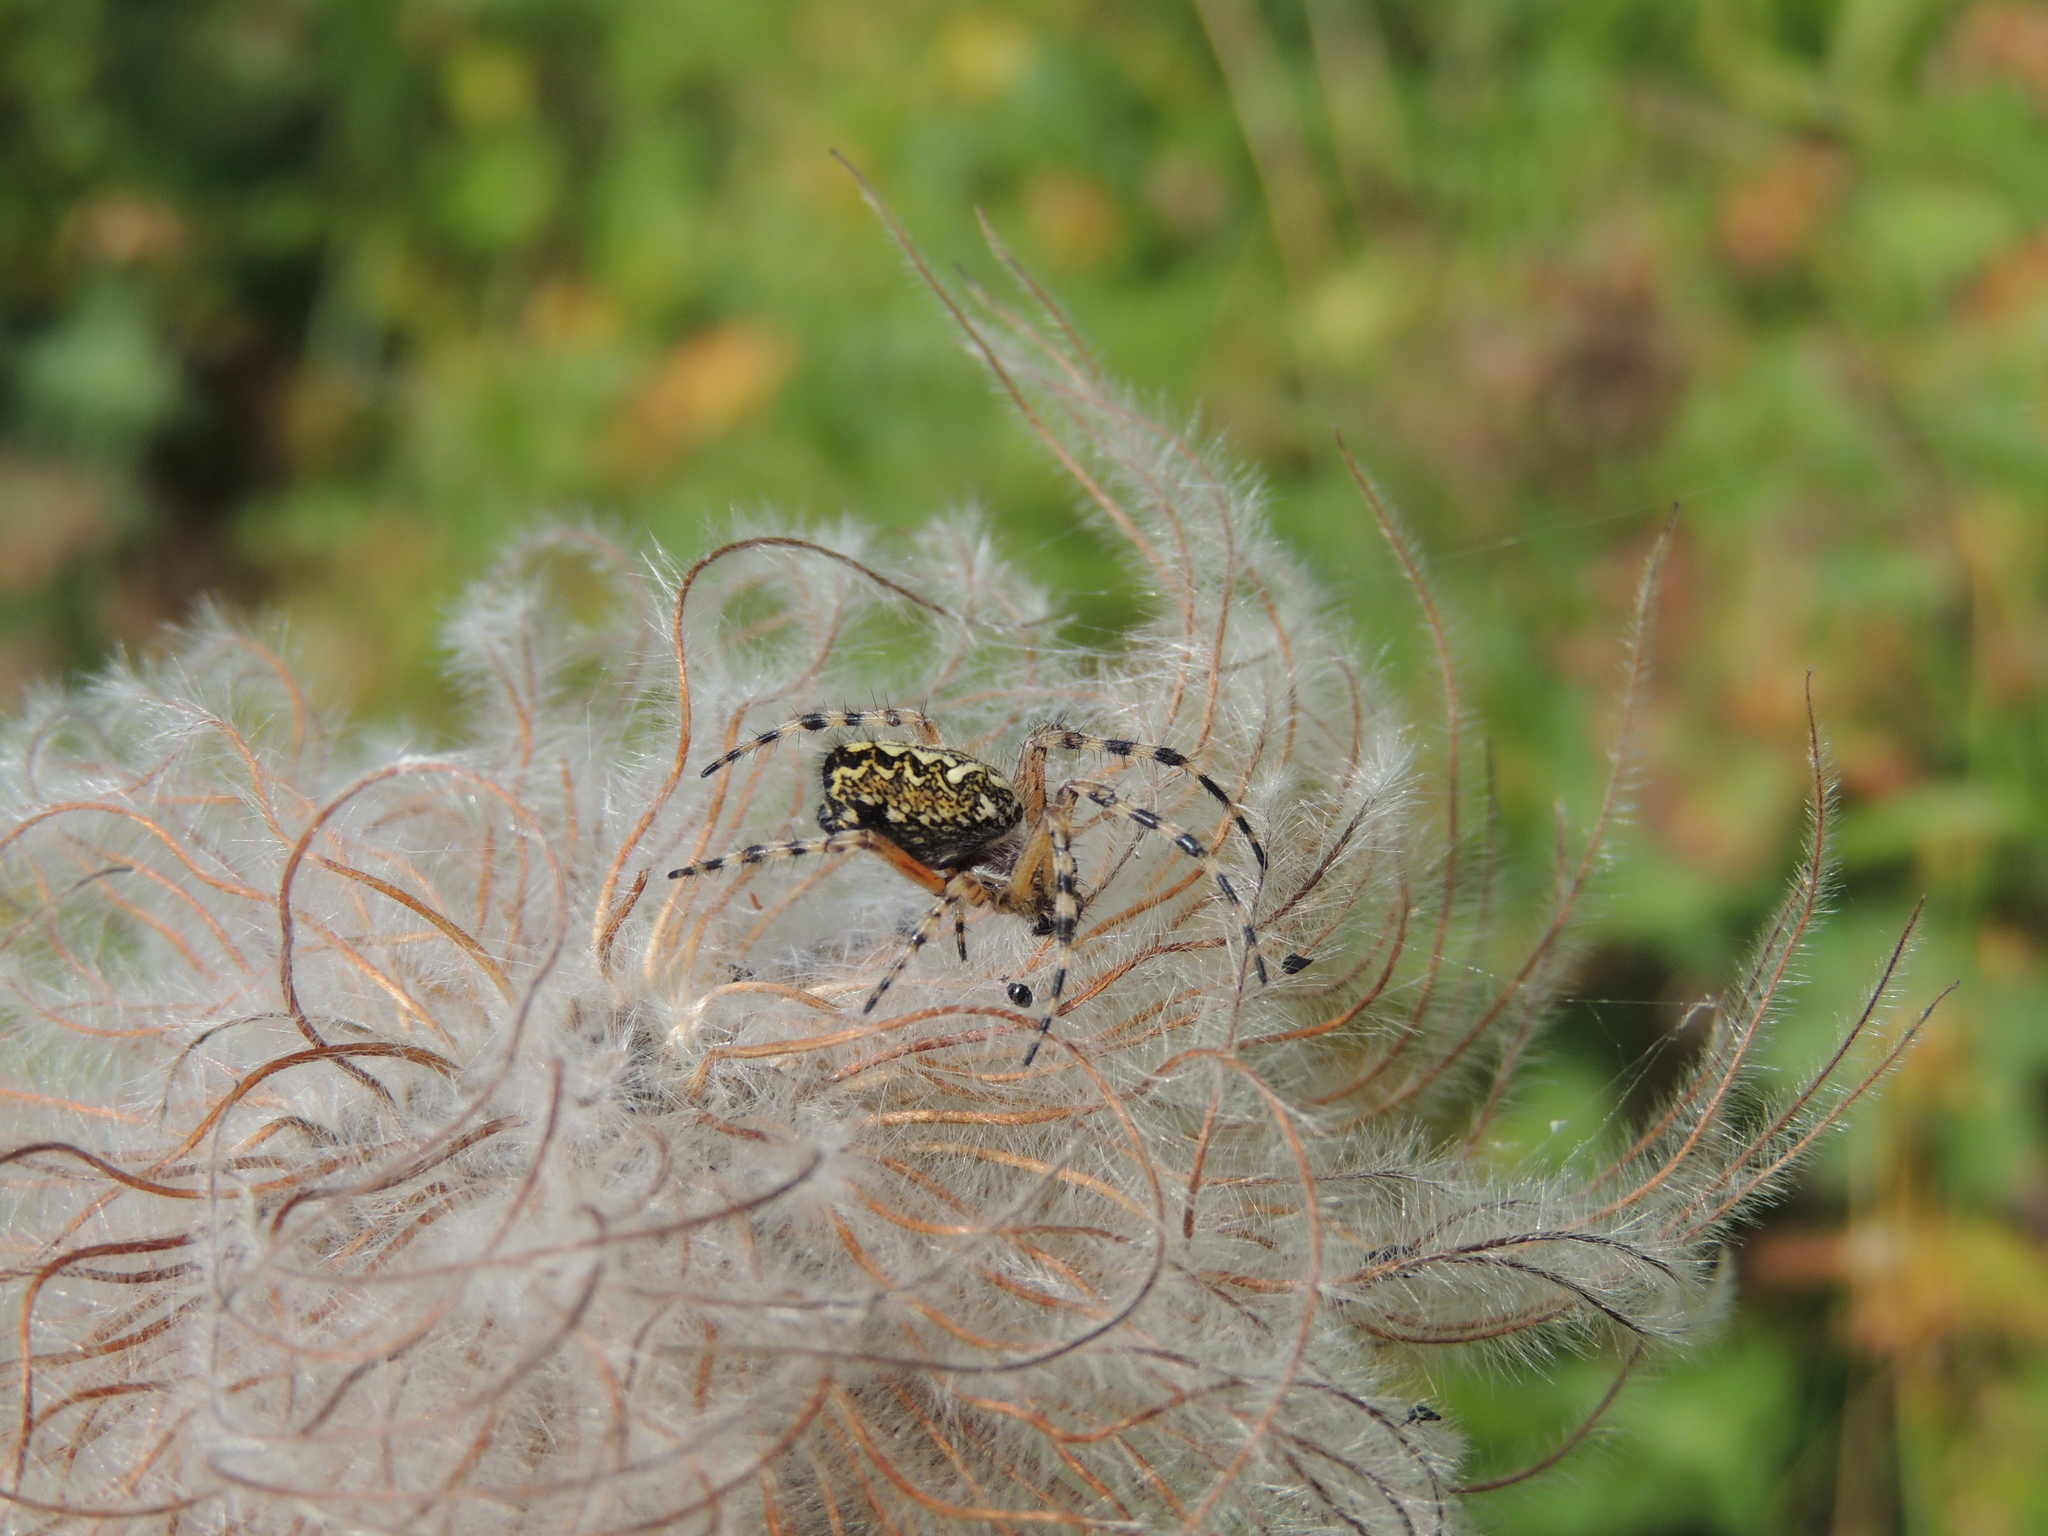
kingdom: Animalia
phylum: Arthropoda
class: Arachnida
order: Araneae
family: Araneidae
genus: Aculepeira
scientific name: Aculepeira ceropegia
